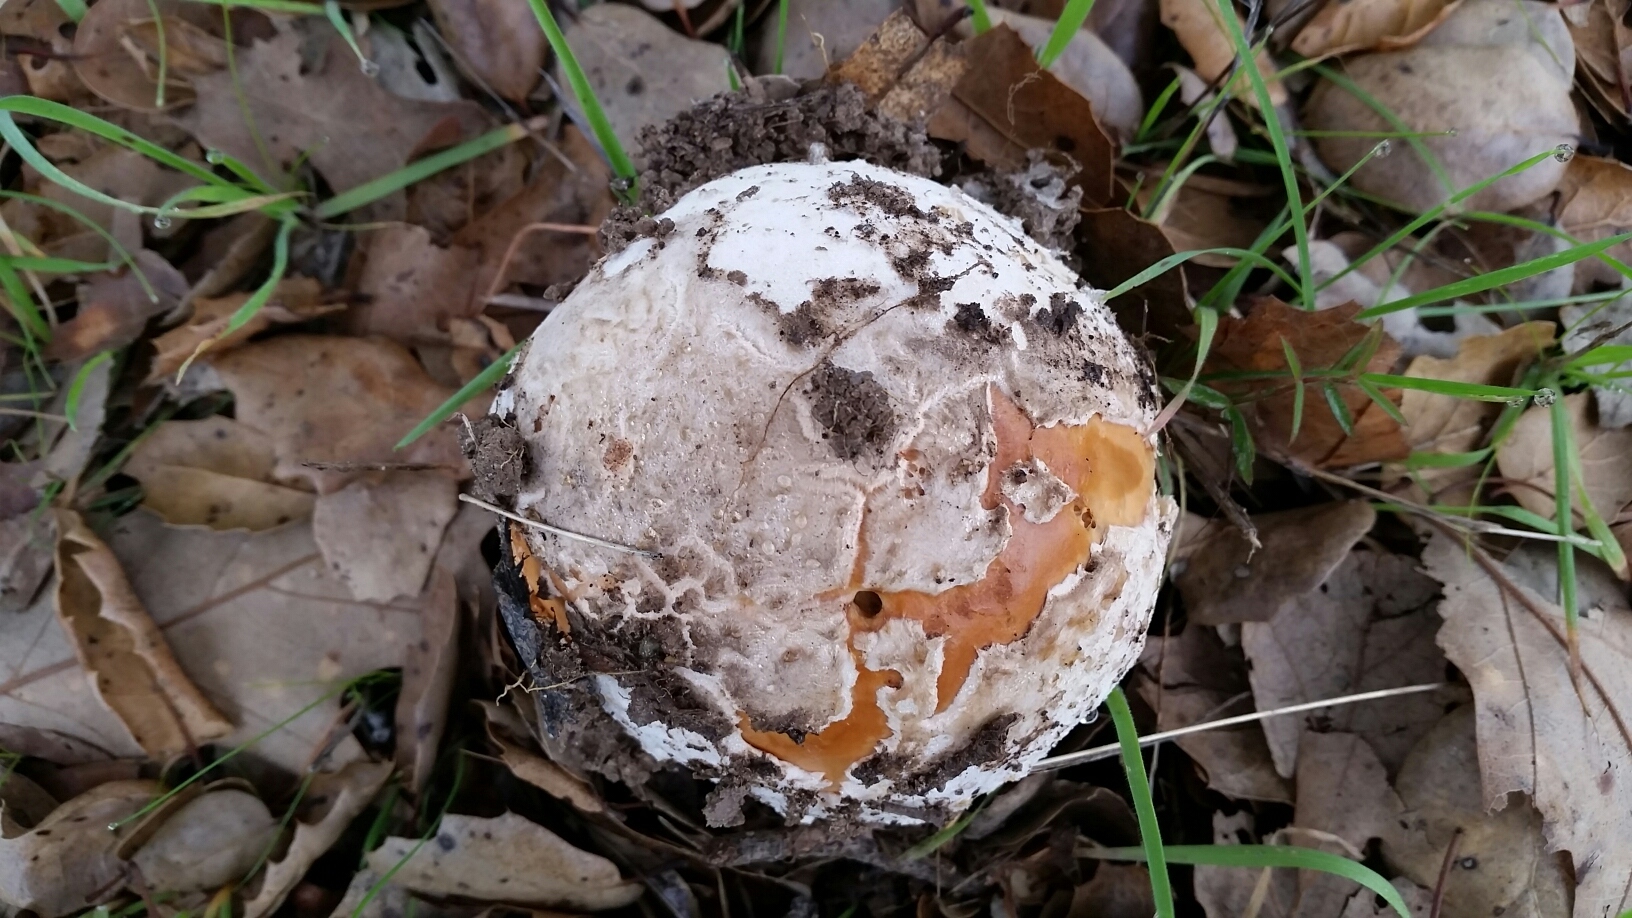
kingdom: Fungi
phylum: Basidiomycota
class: Agaricomycetes
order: Agaricales
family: Amanitaceae
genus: Amanita
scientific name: Amanita velosa
